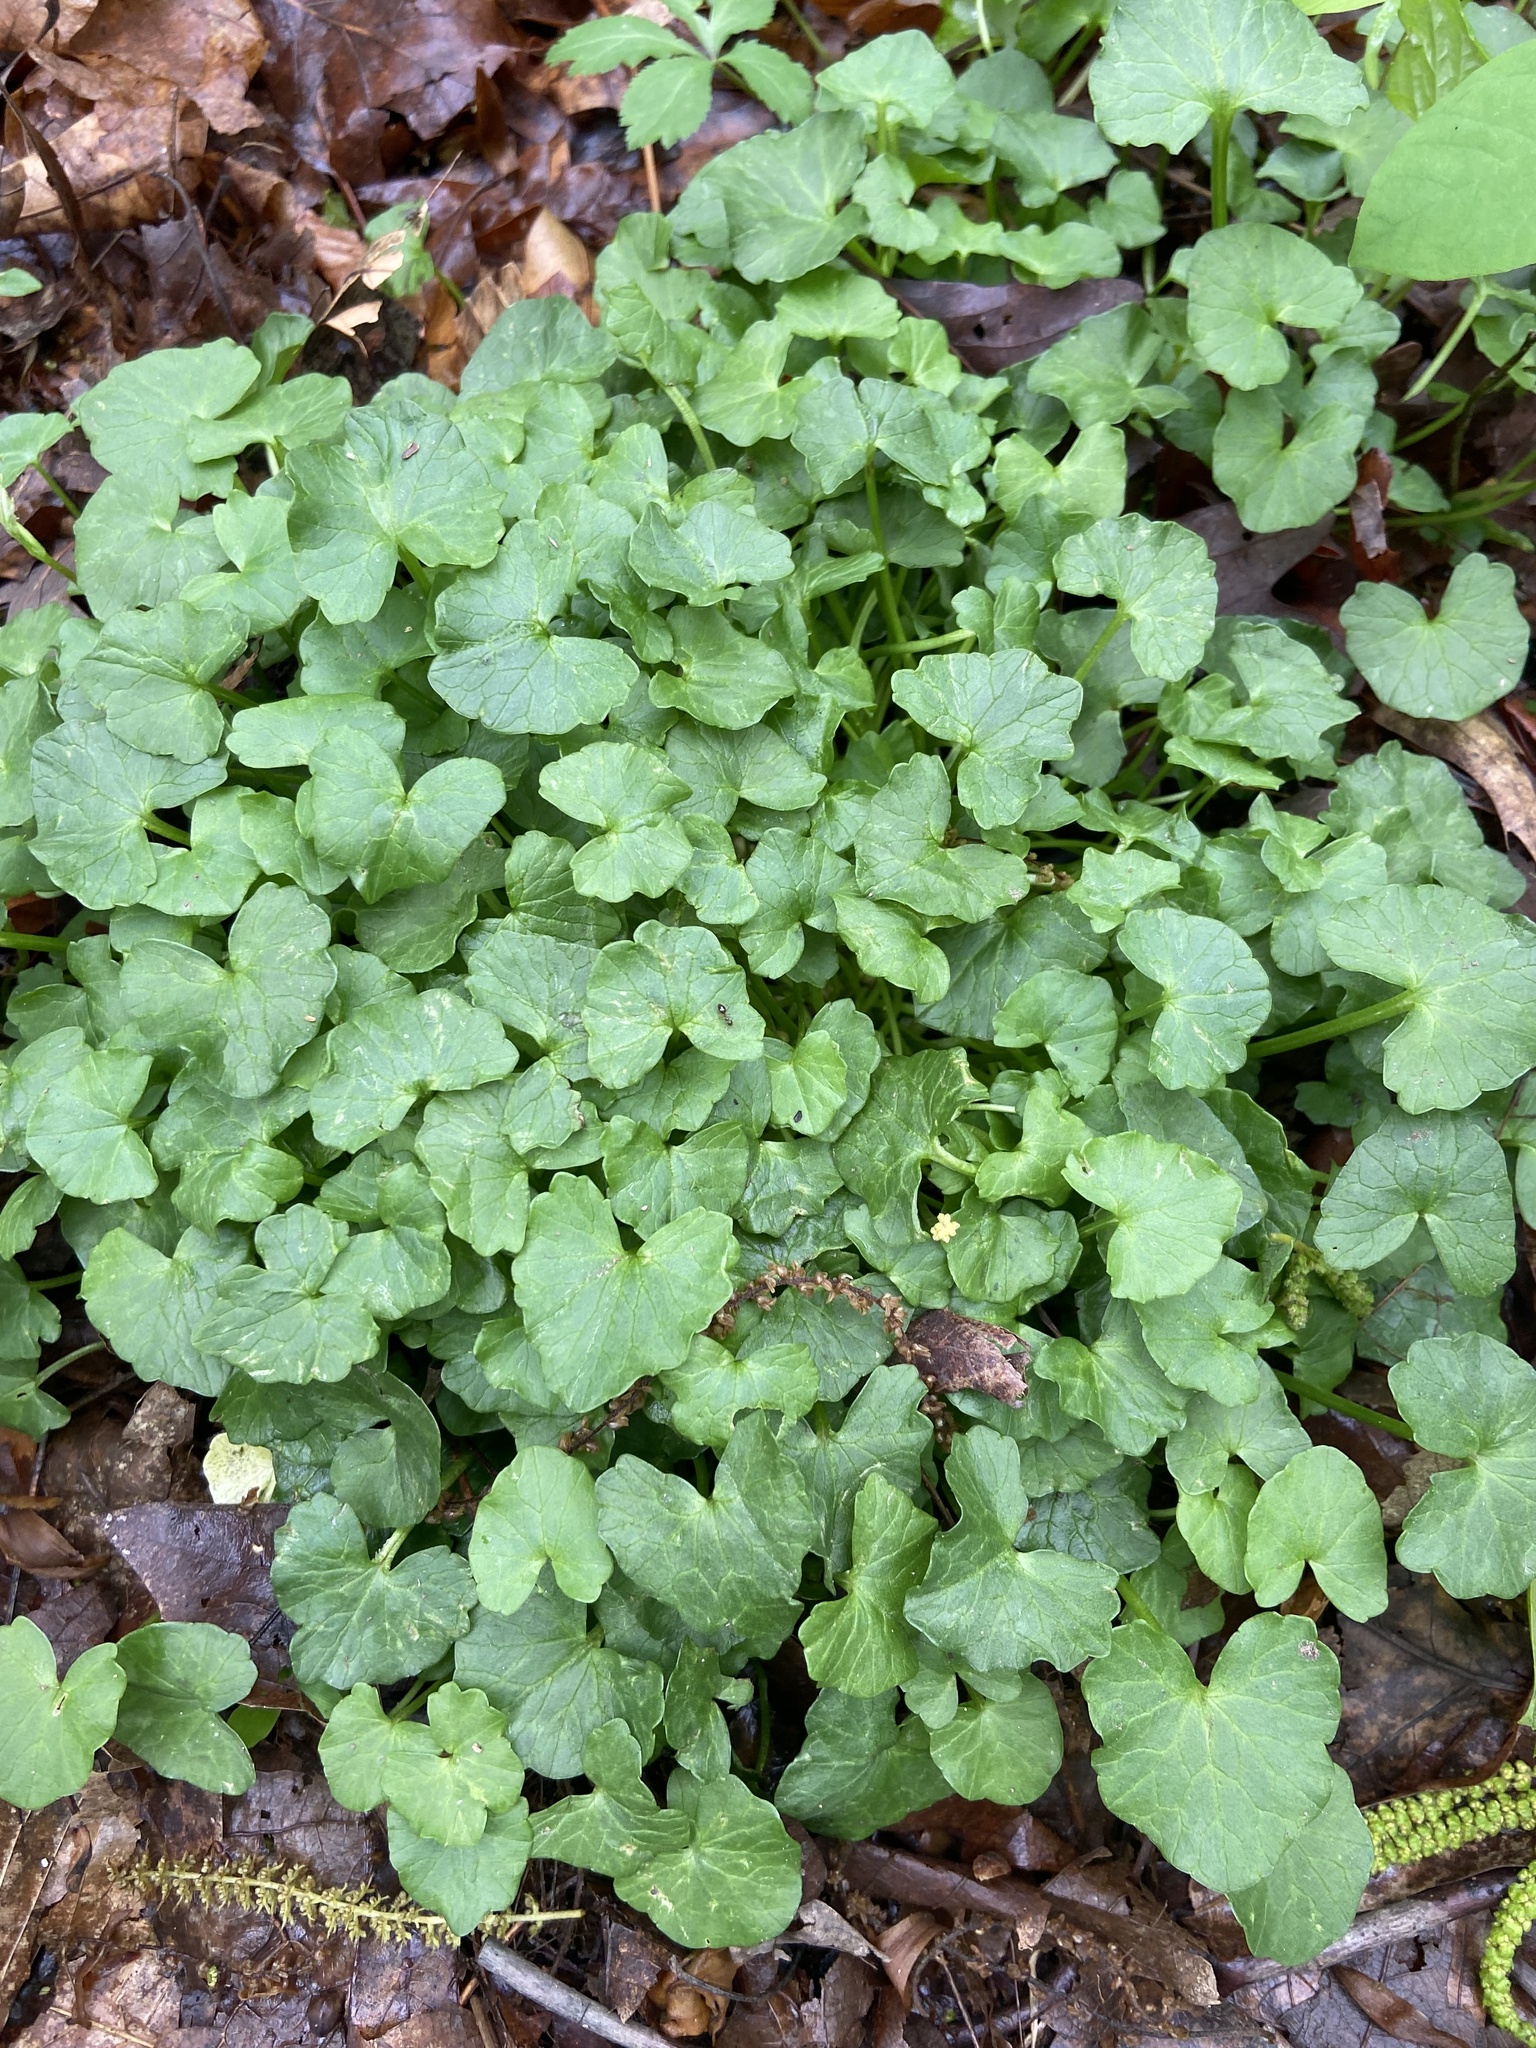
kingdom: Plantae
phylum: Tracheophyta
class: Magnoliopsida
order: Ranunculales
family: Ranunculaceae
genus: Ficaria
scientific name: Ficaria verna
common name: Lesser celandine
